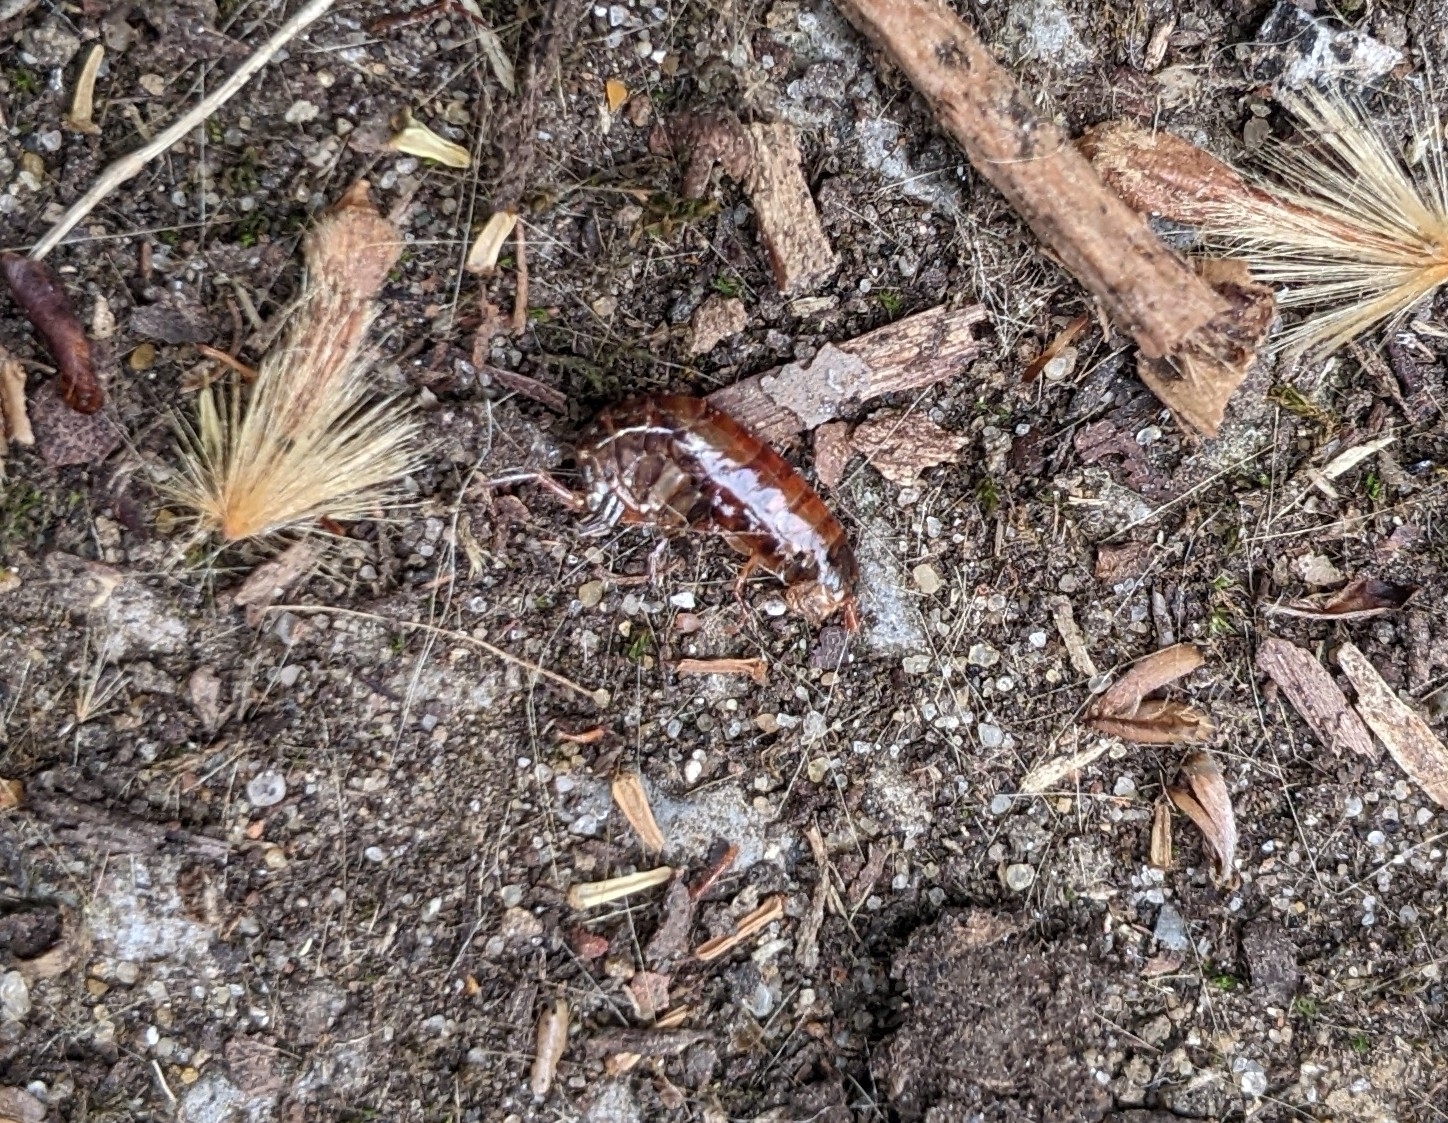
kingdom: Animalia
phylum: Arthropoda
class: Malacostraca
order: Amphipoda
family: Arcitalitridae
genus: Arcitalitrus
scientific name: Arcitalitrus dorrieni
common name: Landhopper
